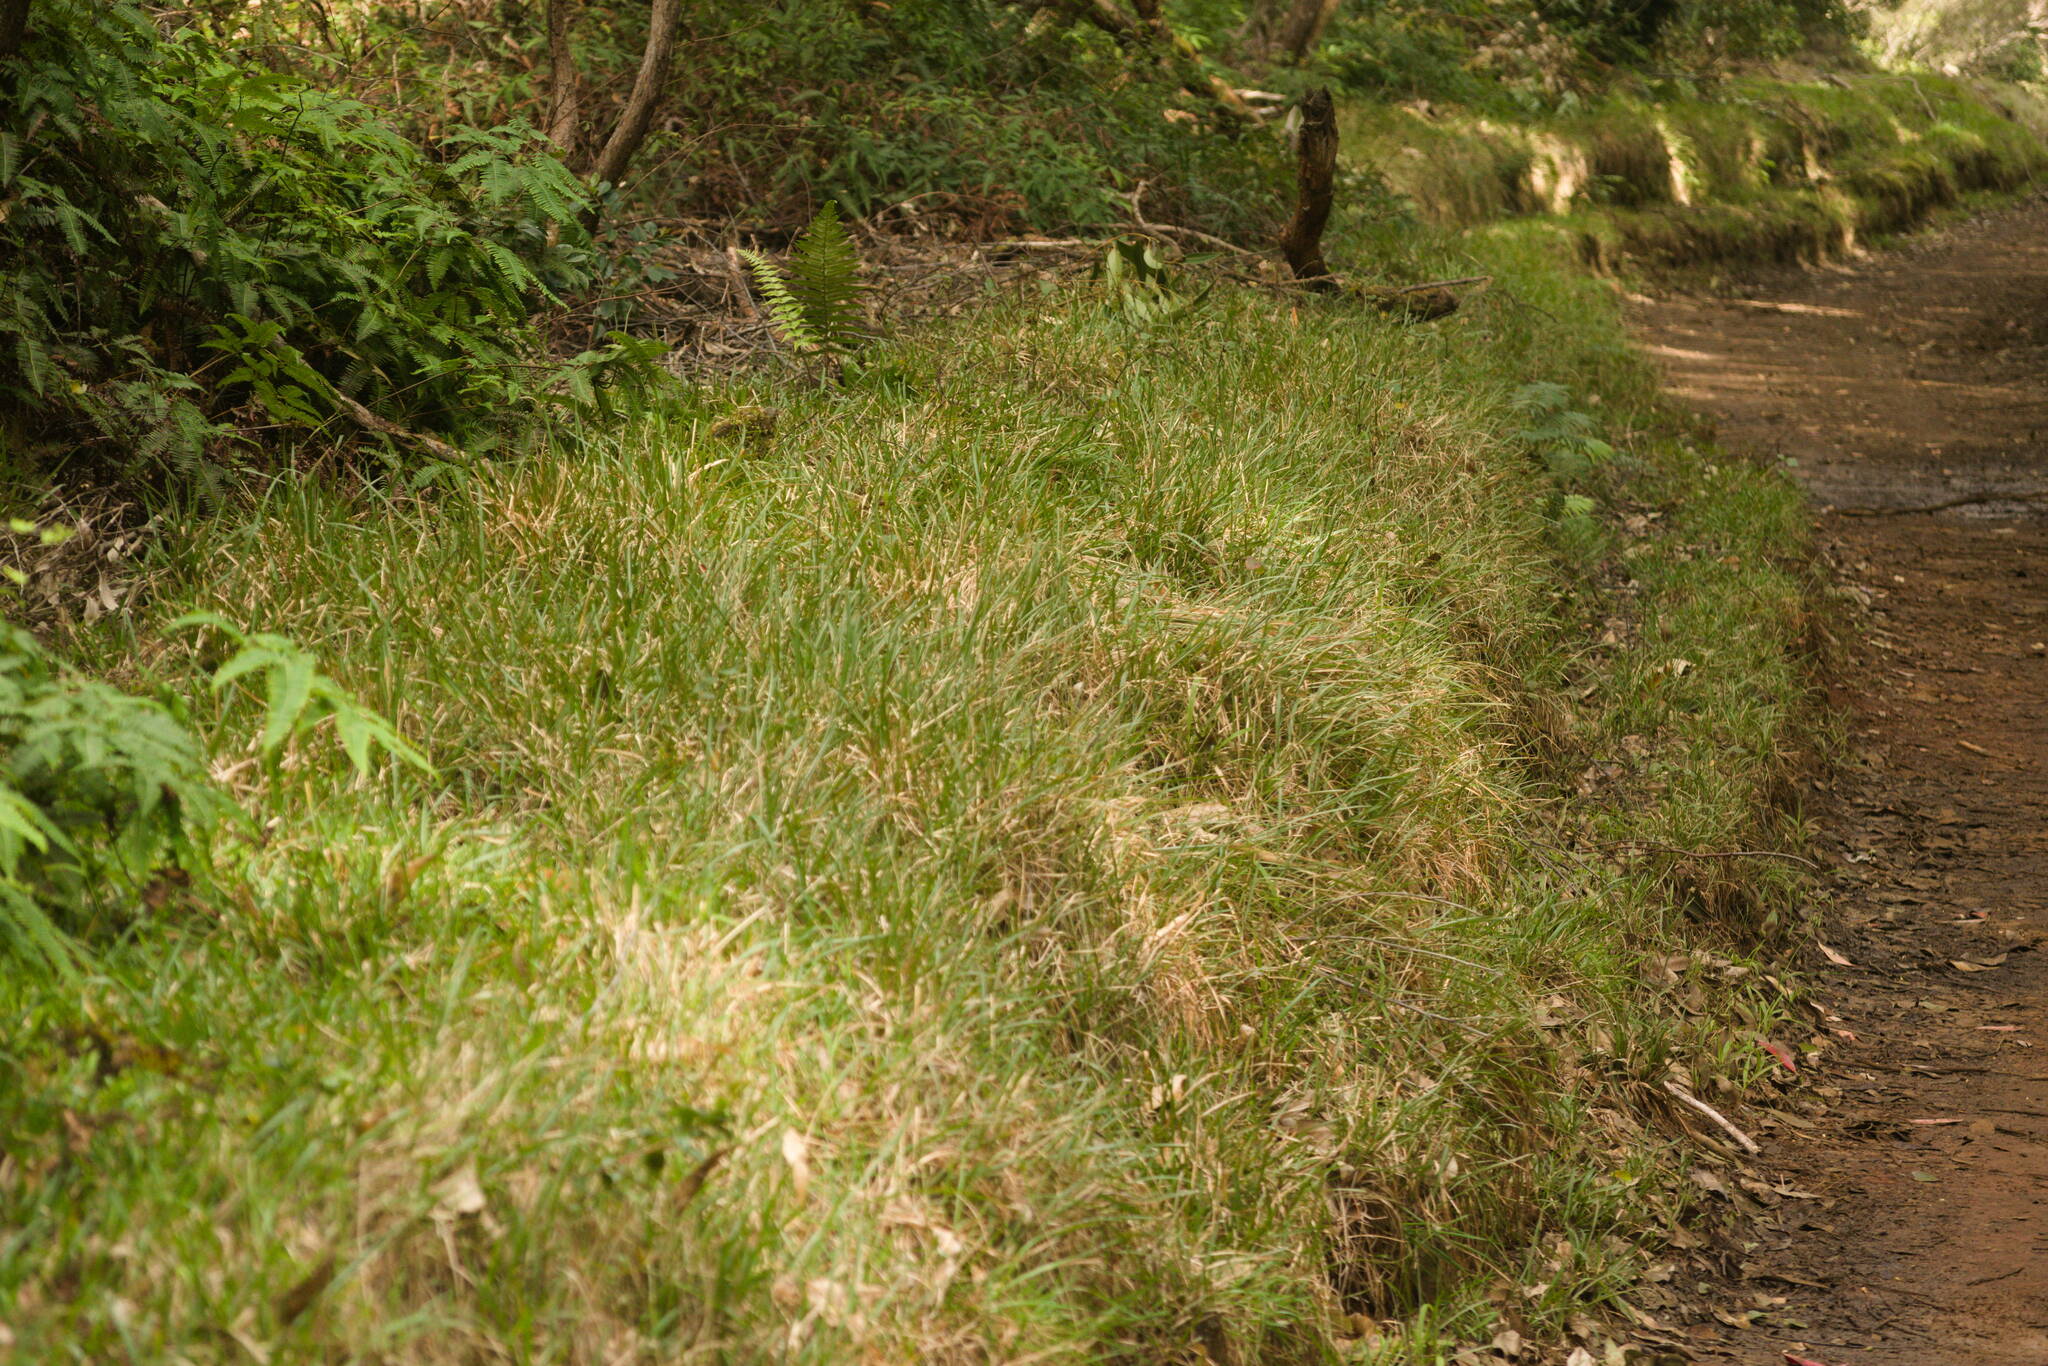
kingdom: Plantae
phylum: Tracheophyta
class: Liliopsida
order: Poales
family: Poaceae
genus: Axonopus
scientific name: Axonopus fissifolius
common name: Common carpetgrass
